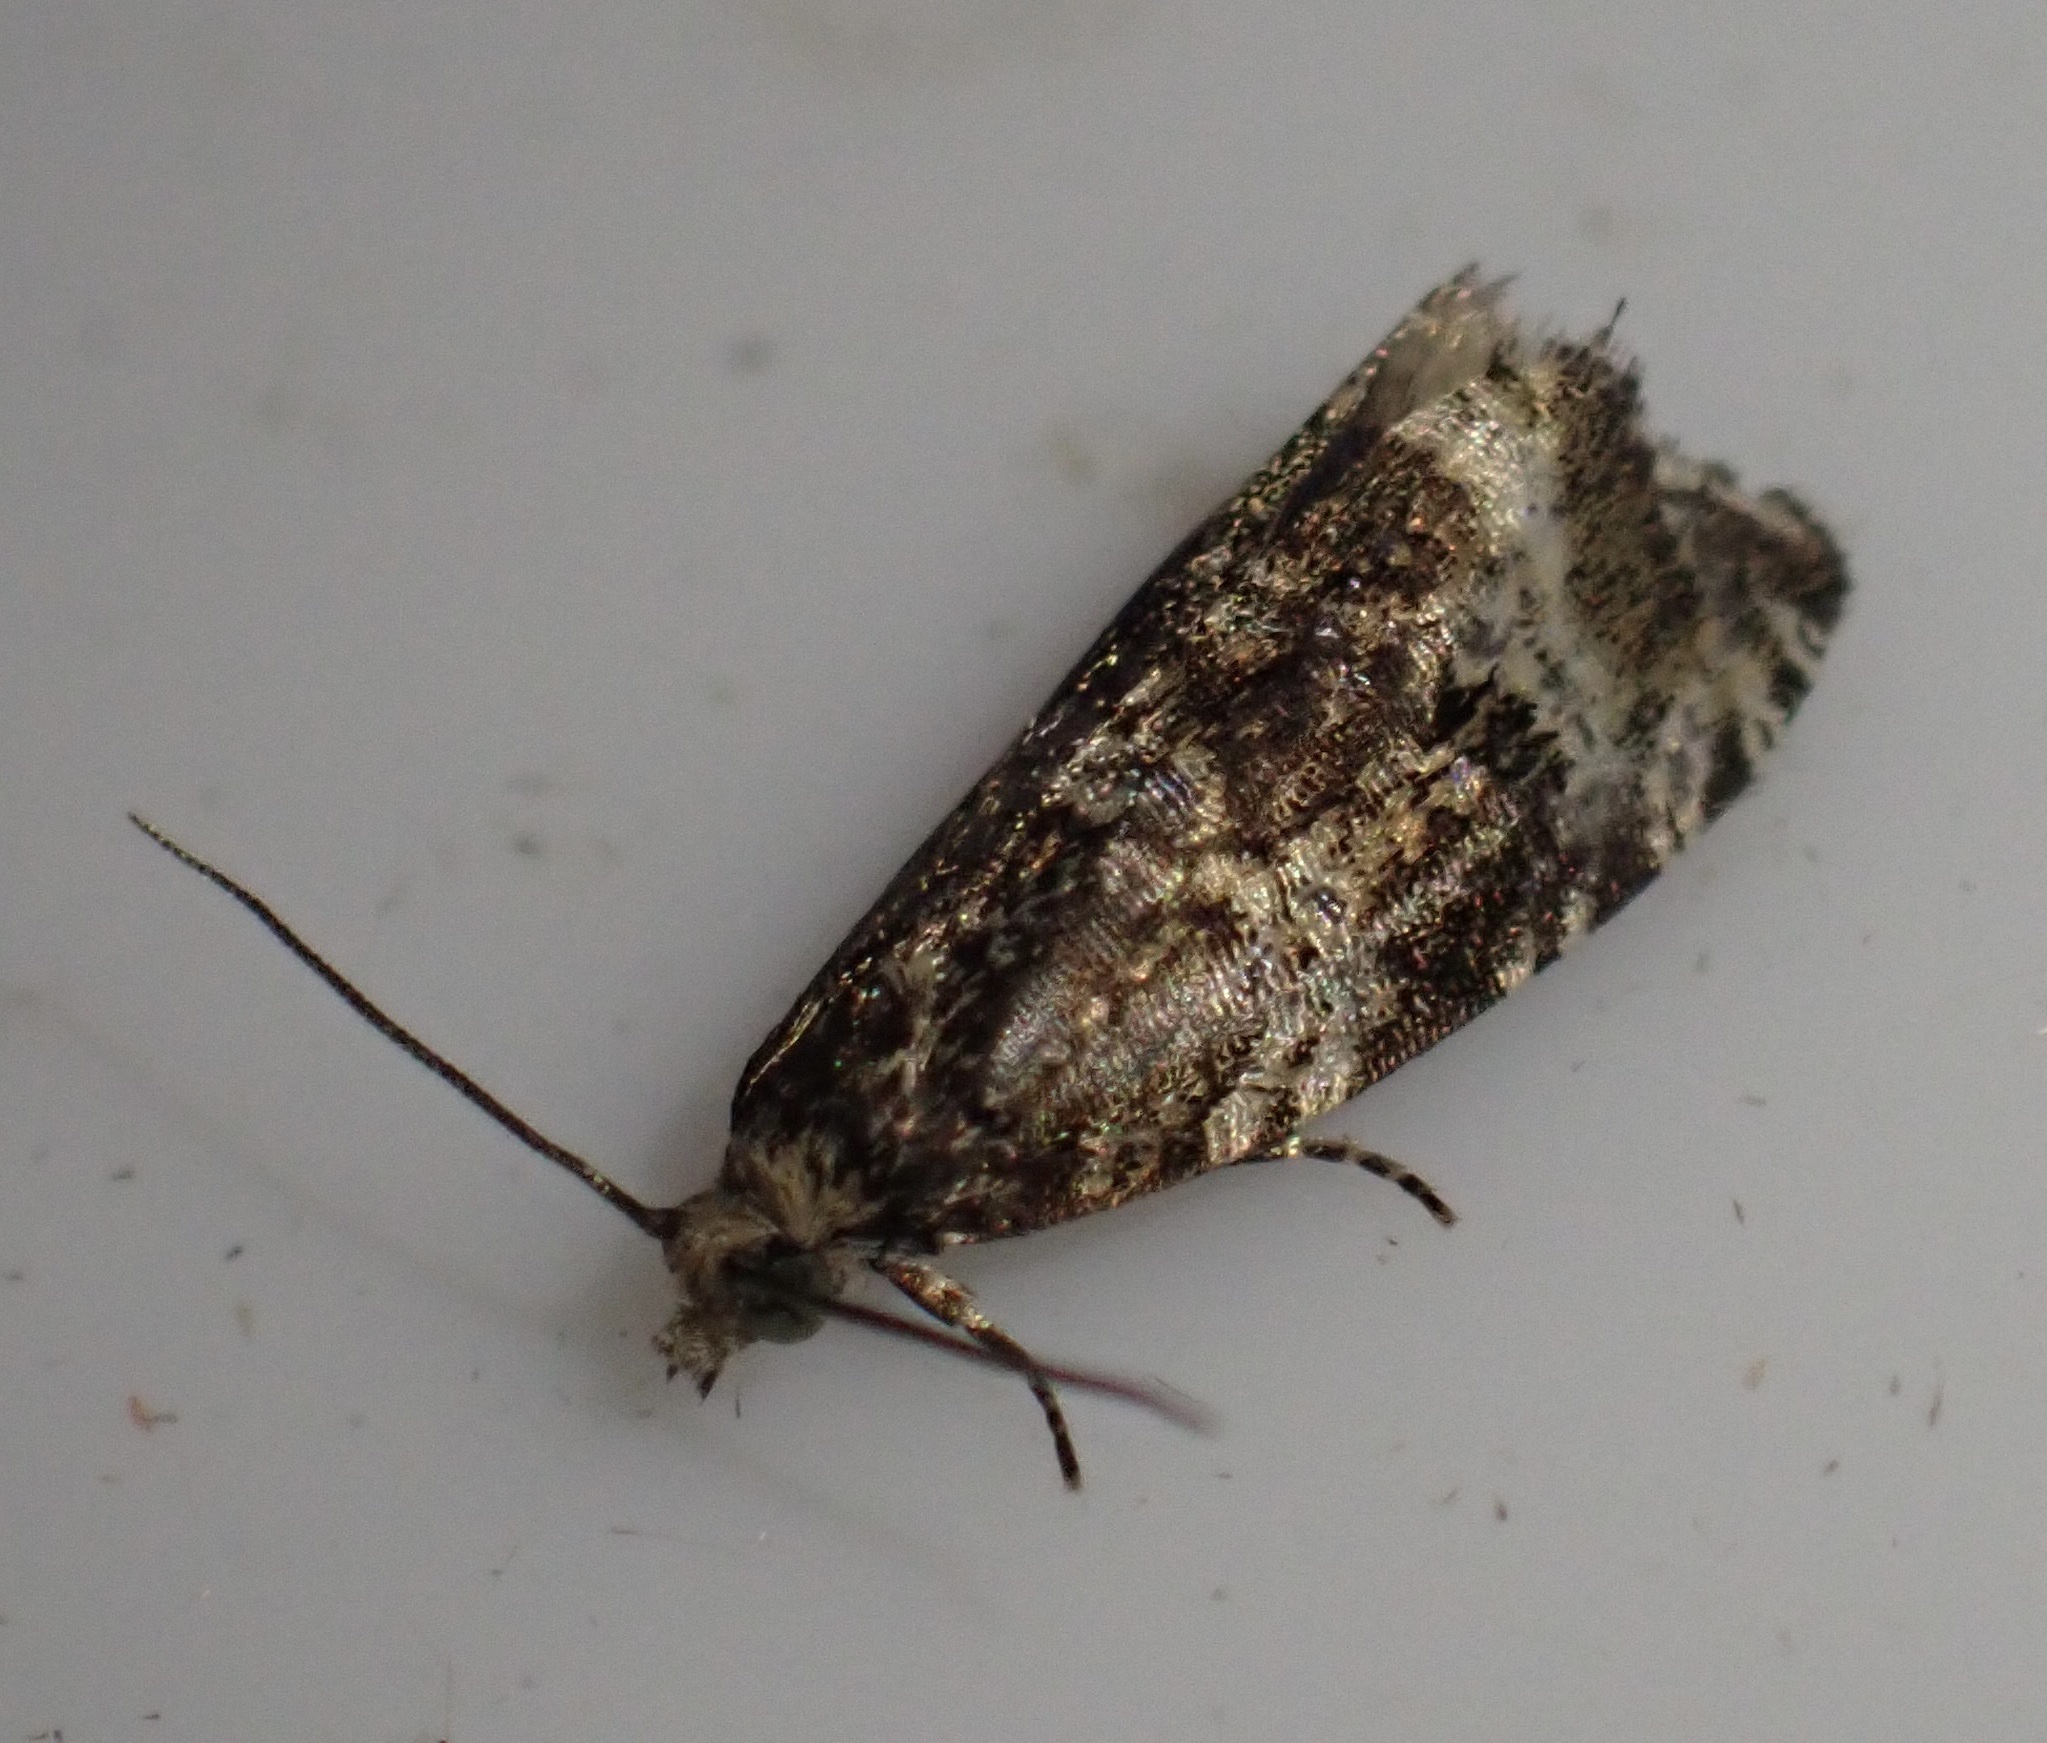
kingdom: Animalia
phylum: Arthropoda
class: Insecta
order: Lepidoptera
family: Tortricidae
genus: Syricoris
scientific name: Syricoris lacunana
